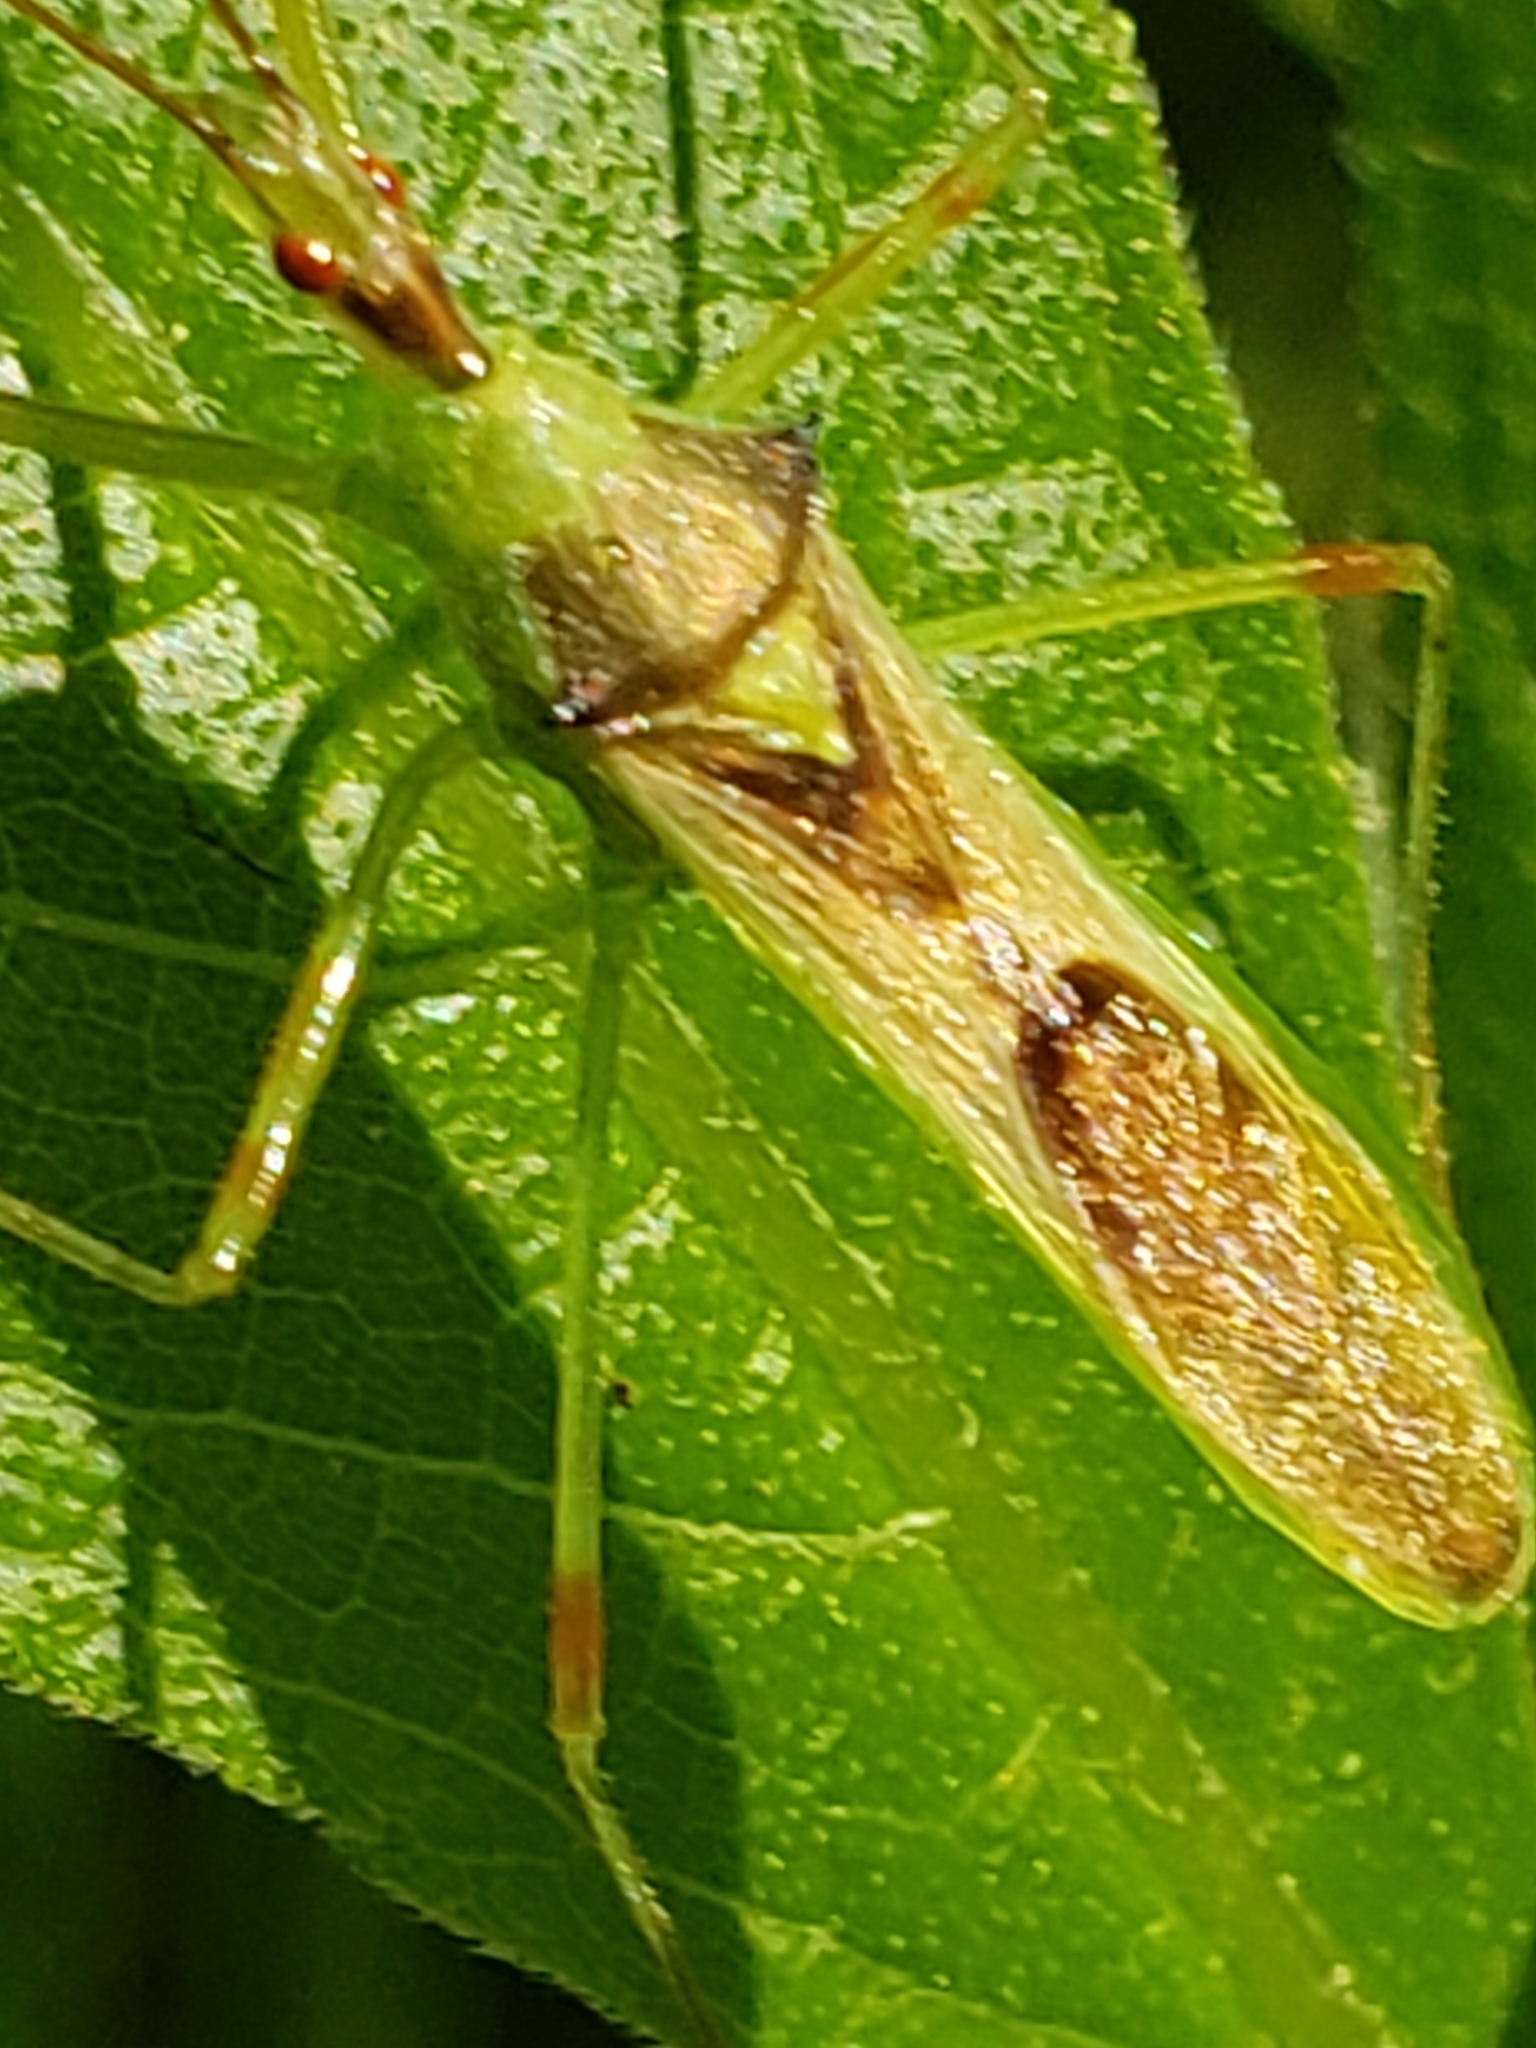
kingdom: Animalia
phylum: Arthropoda
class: Insecta
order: Hemiptera
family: Reduviidae
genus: Zelus
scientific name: Zelus luridus
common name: Pale green assassin bug
